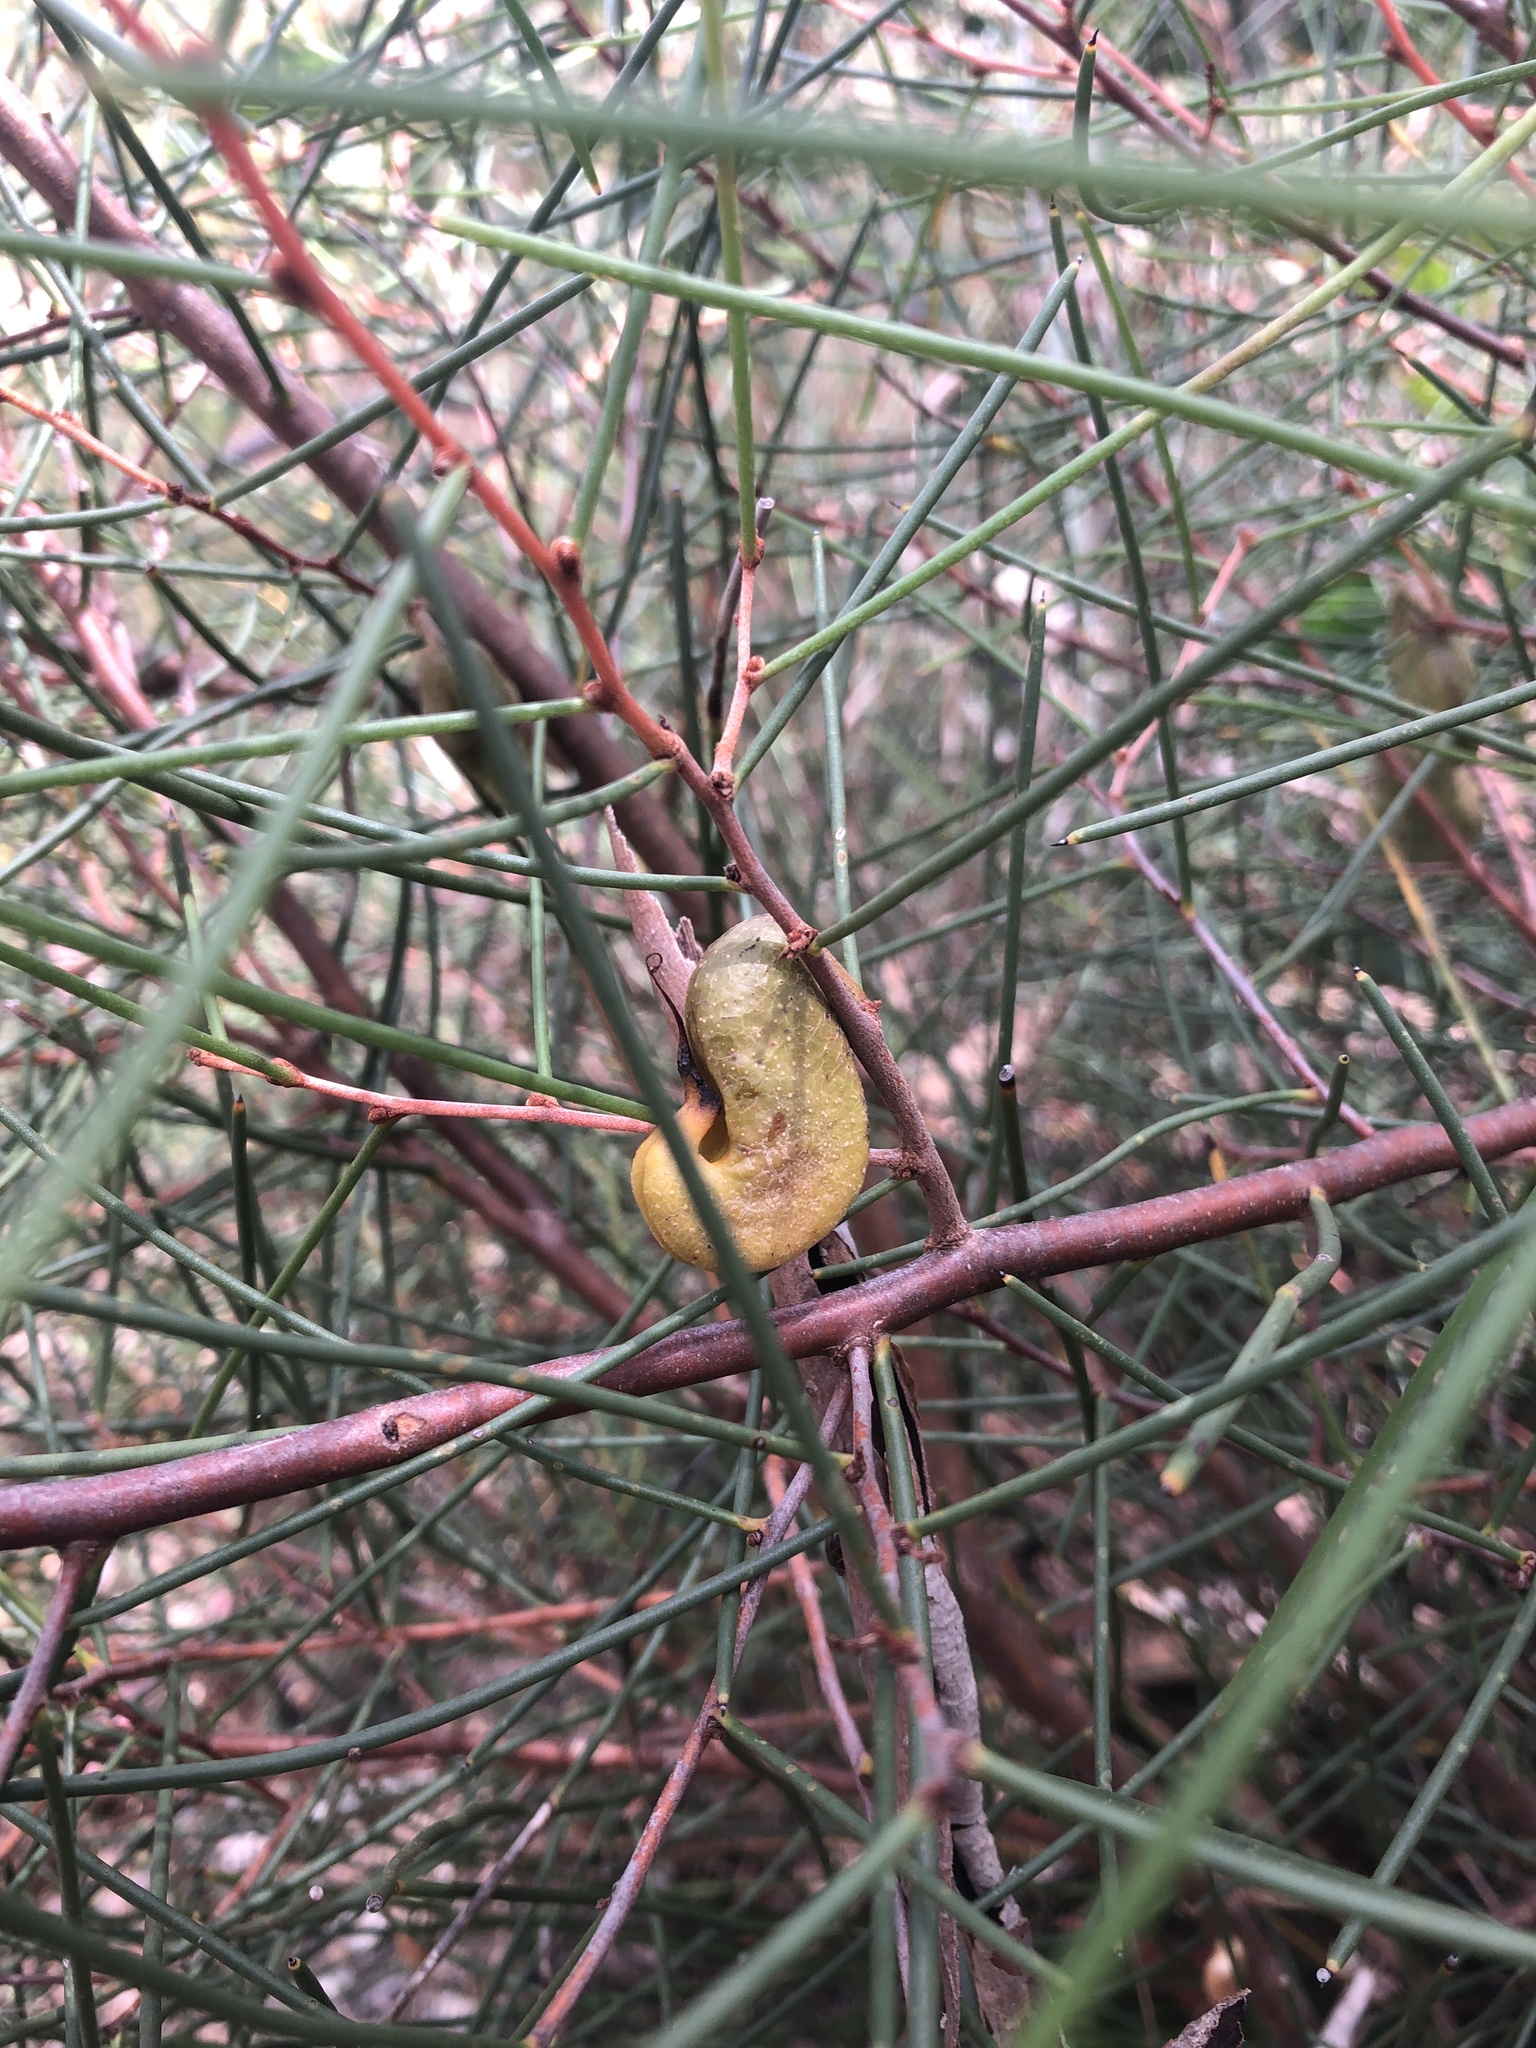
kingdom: Plantae
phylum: Tracheophyta
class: Magnoliopsida
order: Proteales
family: Proteaceae
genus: Hakea
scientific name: Hakea rostrata
